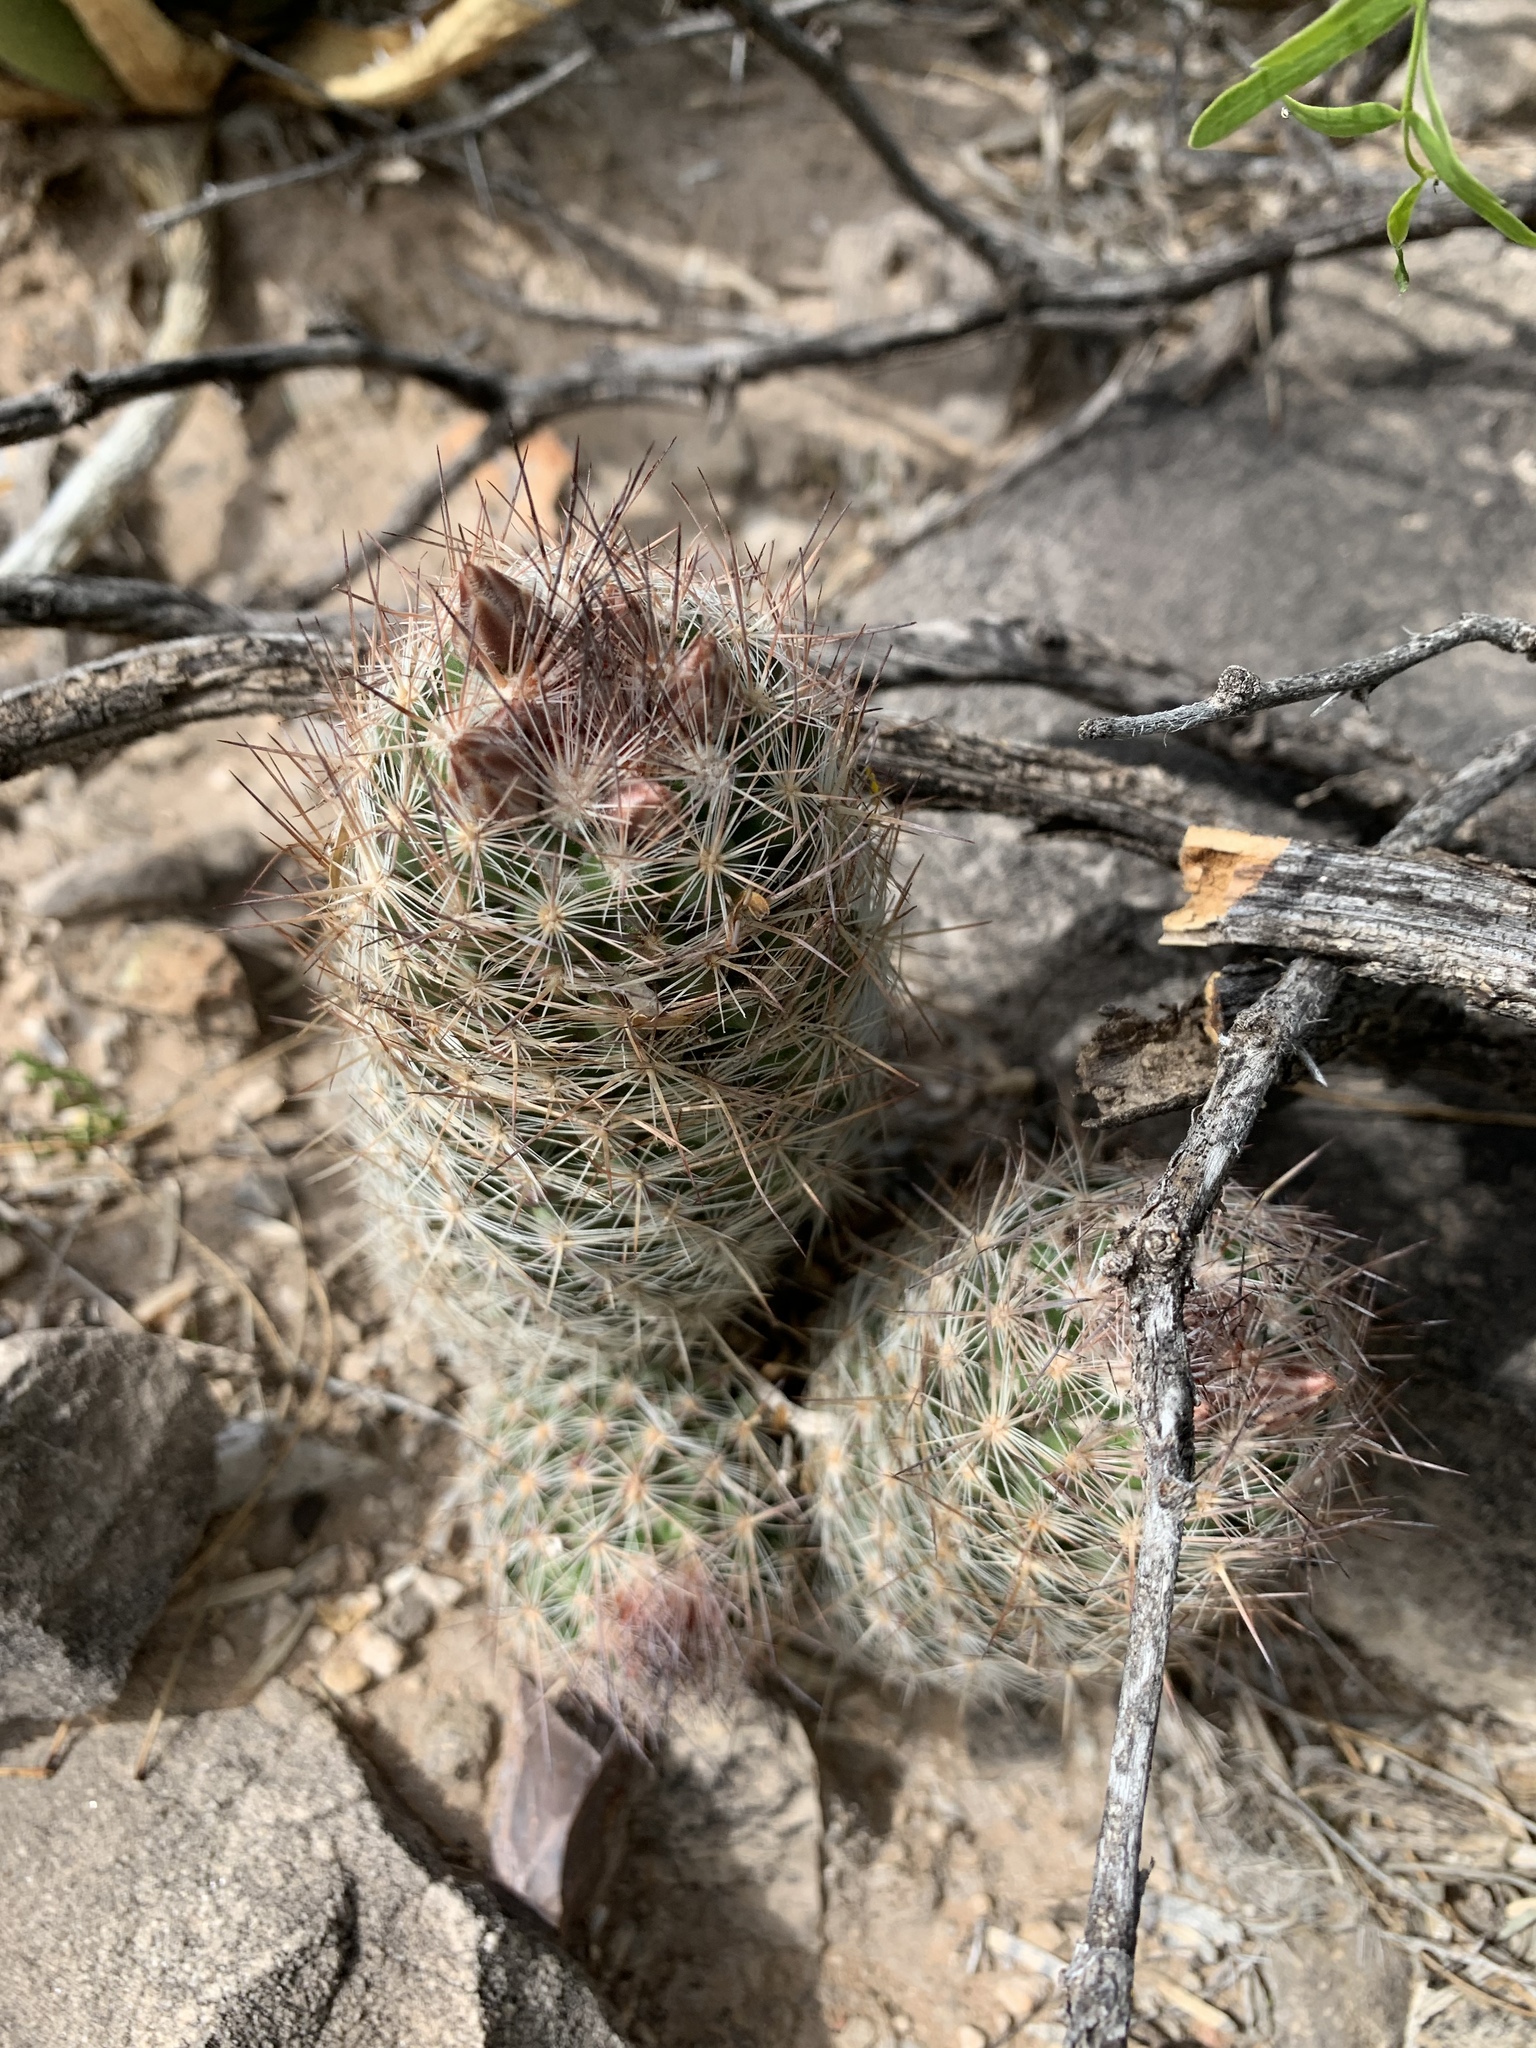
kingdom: Plantae
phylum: Tracheophyta
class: Magnoliopsida
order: Caryophyllales
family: Cactaceae
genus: Pelecyphora
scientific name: Pelecyphora tuberculosa
